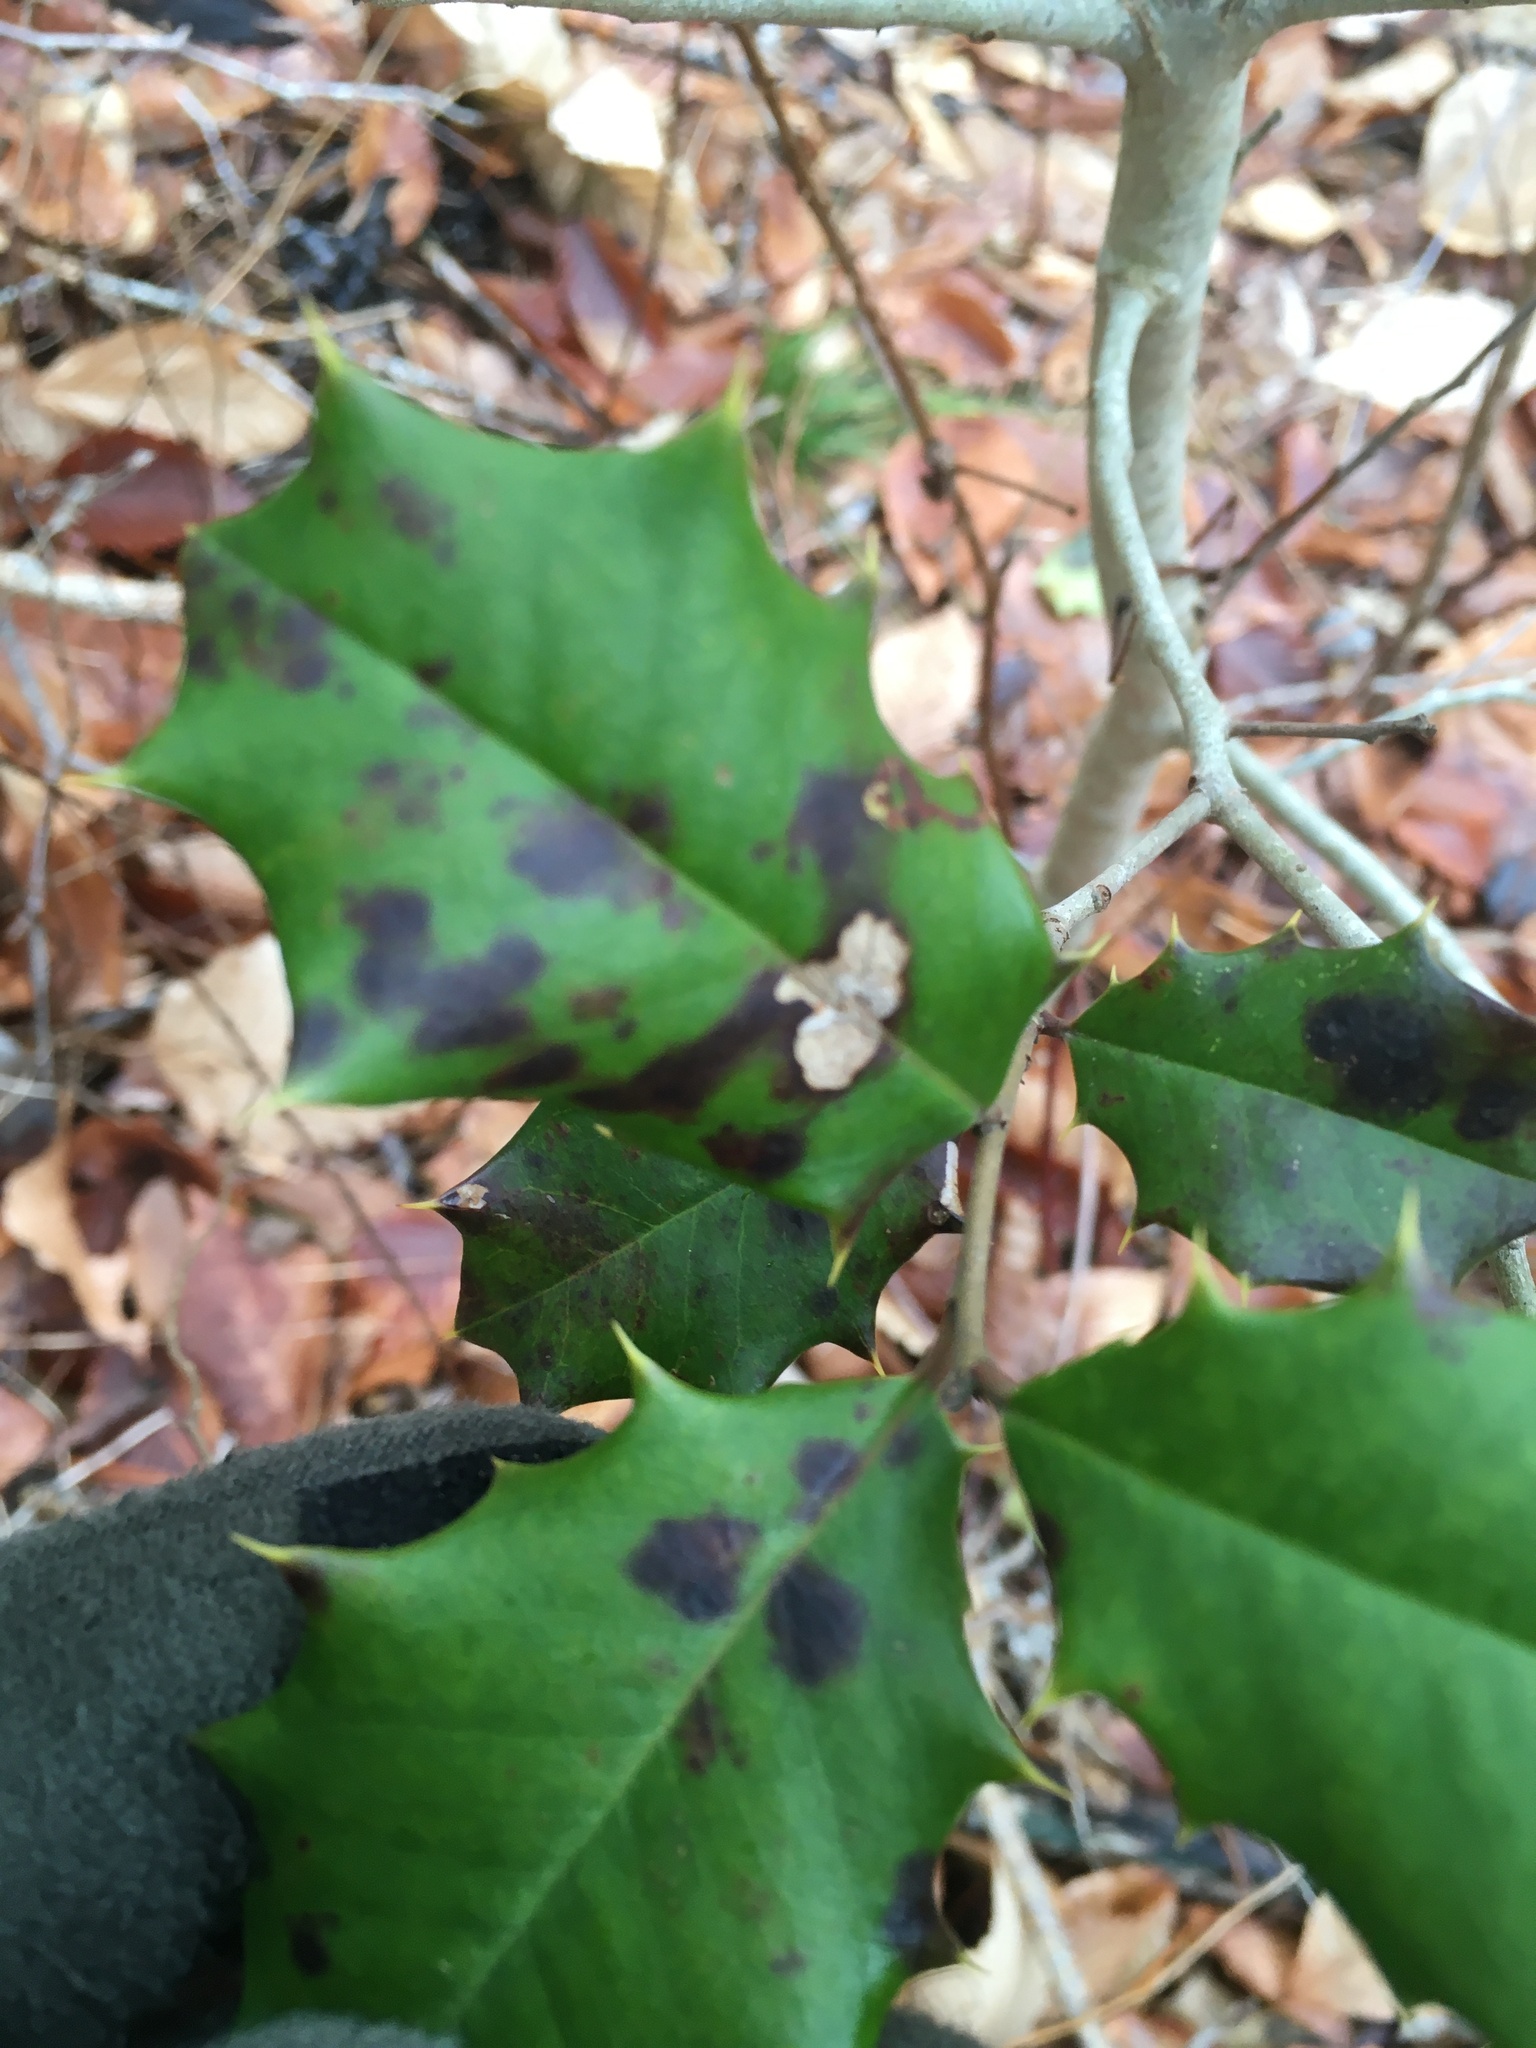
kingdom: Chromista
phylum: Oomycota
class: Peronosporea
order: Peronosporales
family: Peronosporaceae
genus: Phytophthora
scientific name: Phytophthora ilicis
